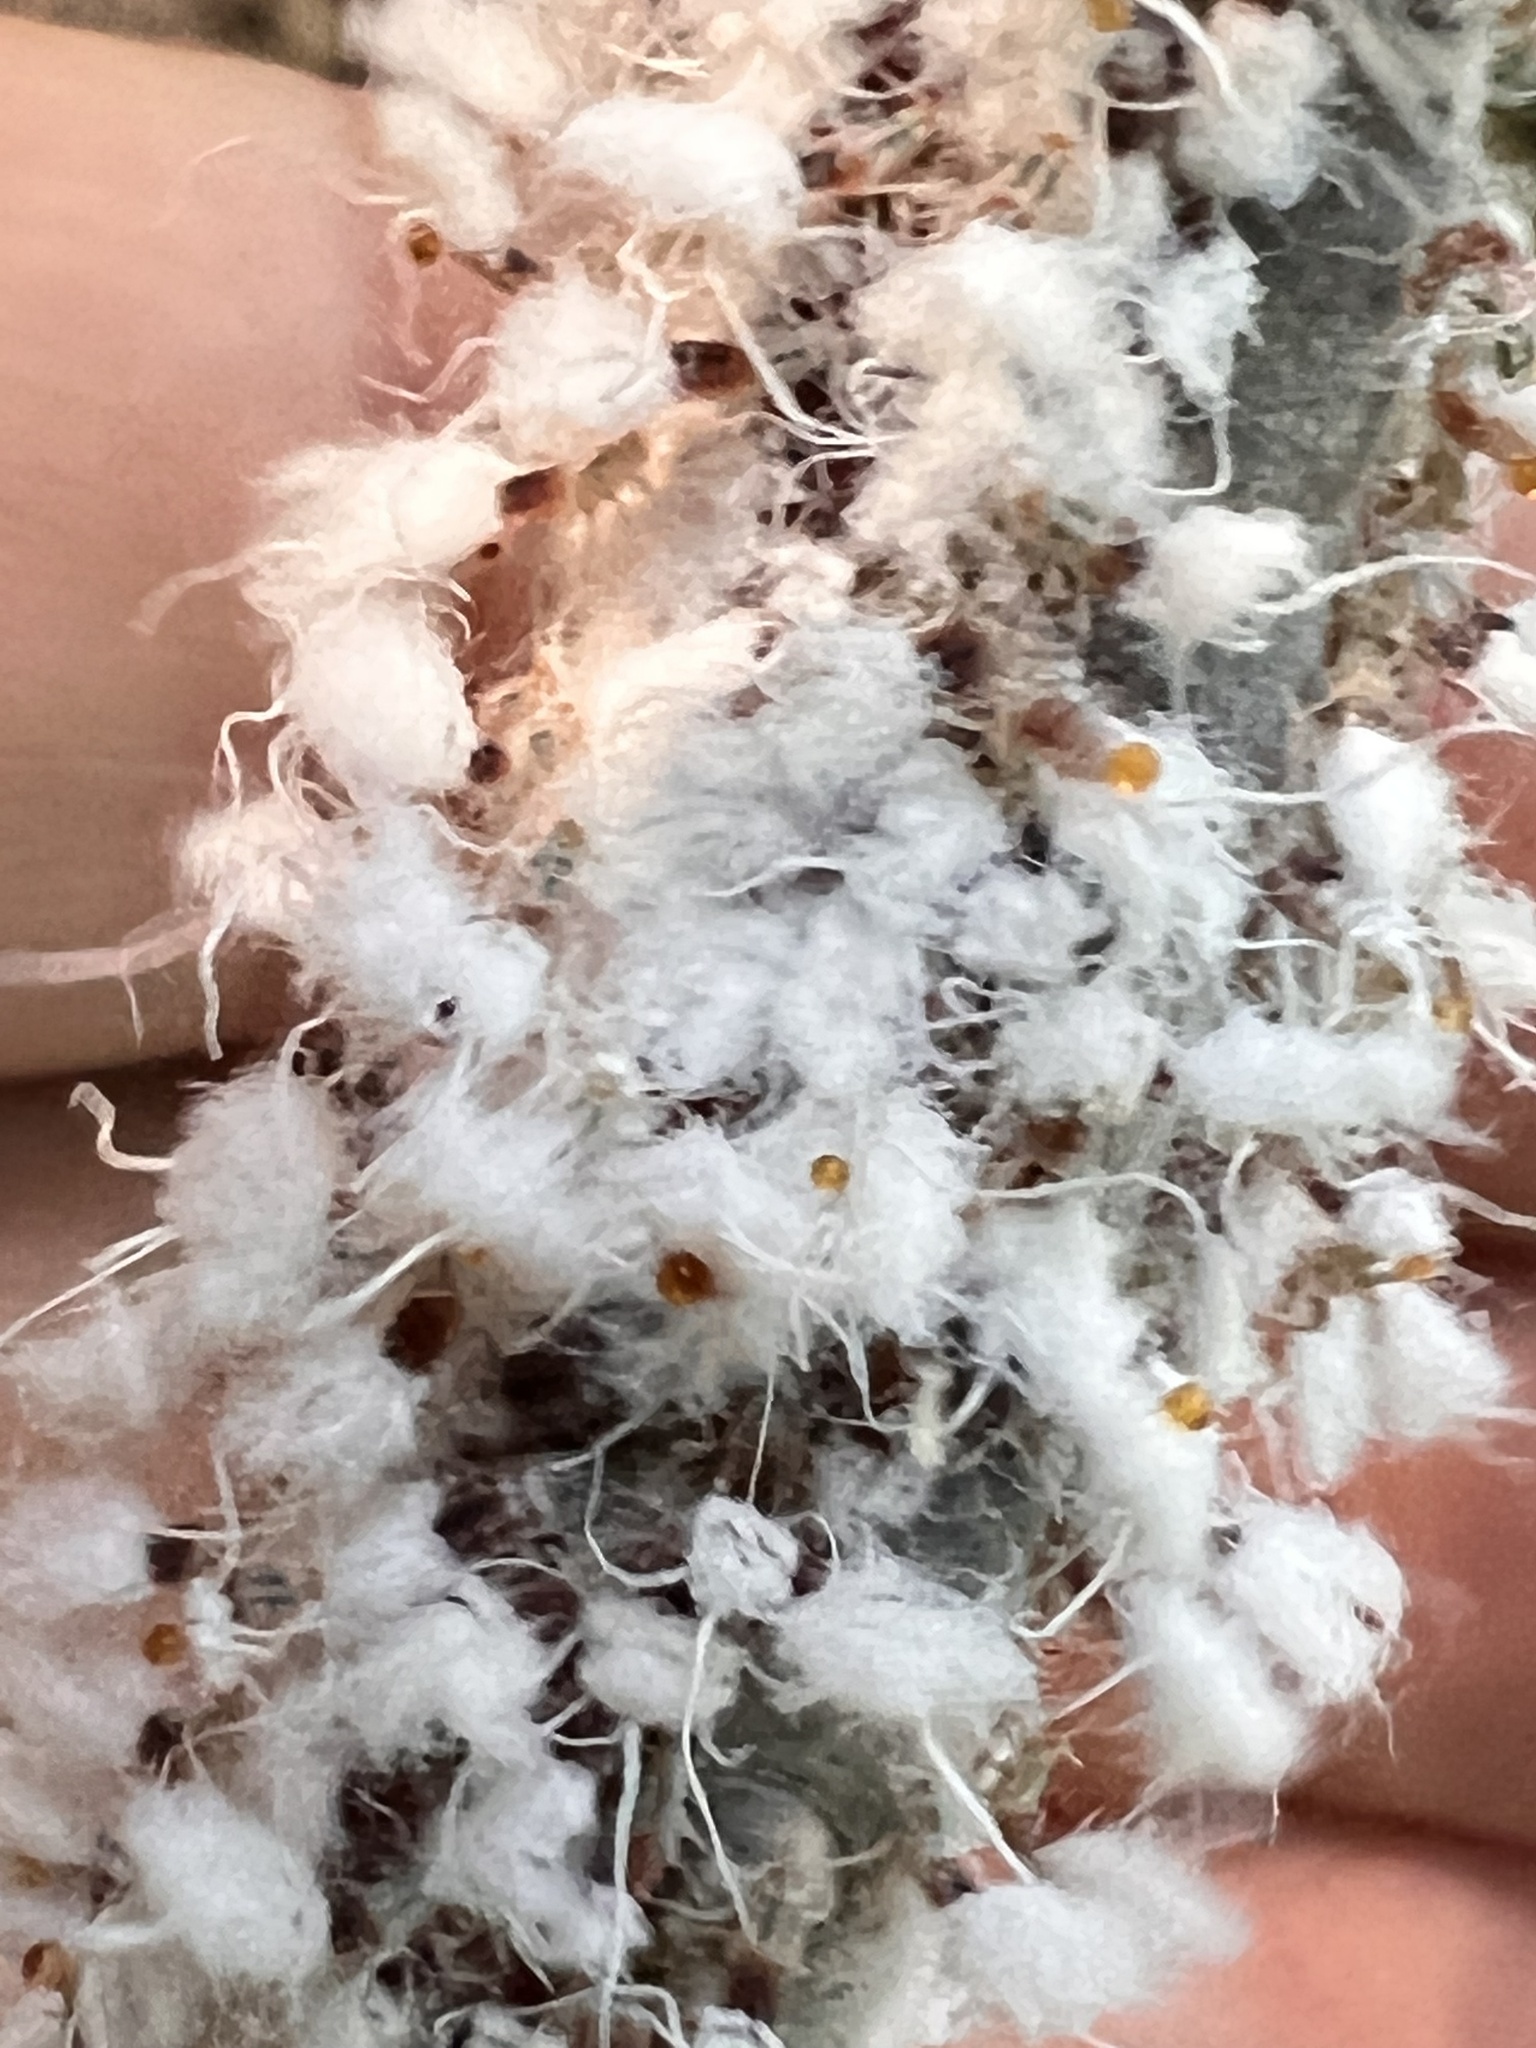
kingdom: Animalia
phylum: Arthropoda
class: Insecta
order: Hemiptera
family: Aphididae
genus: Grylloprociphilus
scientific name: Grylloprociphilus imbricator
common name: Beech blight aphid
